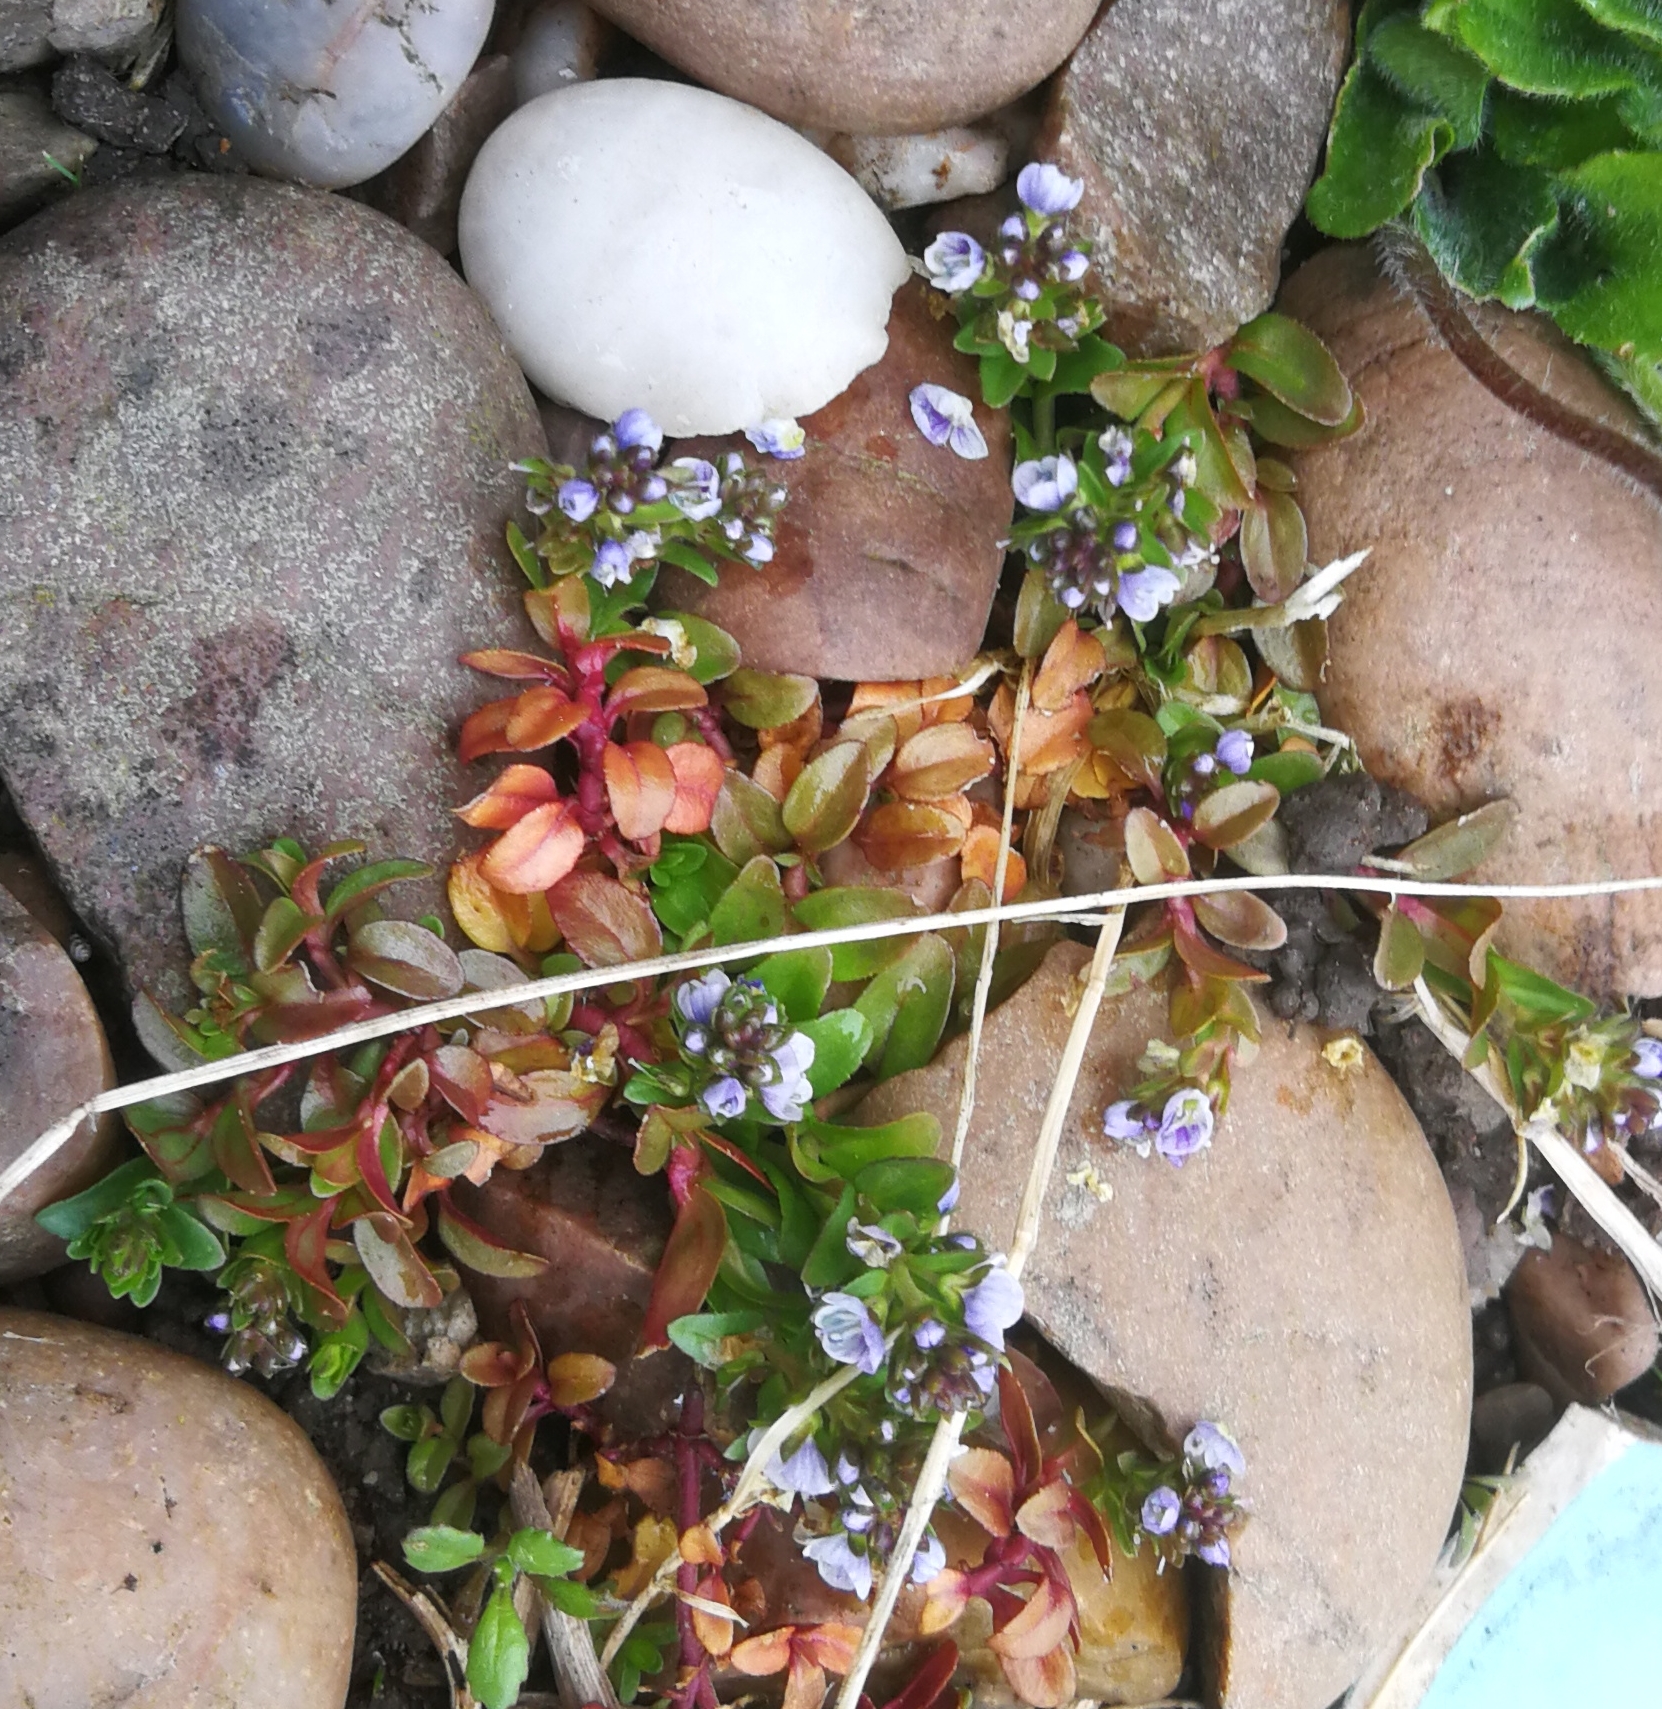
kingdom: Plantae
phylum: Tracheophyta
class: Magnoliopsida
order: Lamiales
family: Plantaginaceae
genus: Veronica
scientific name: Veronica serpyllifolia
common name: Thyme-leaved speedwell
